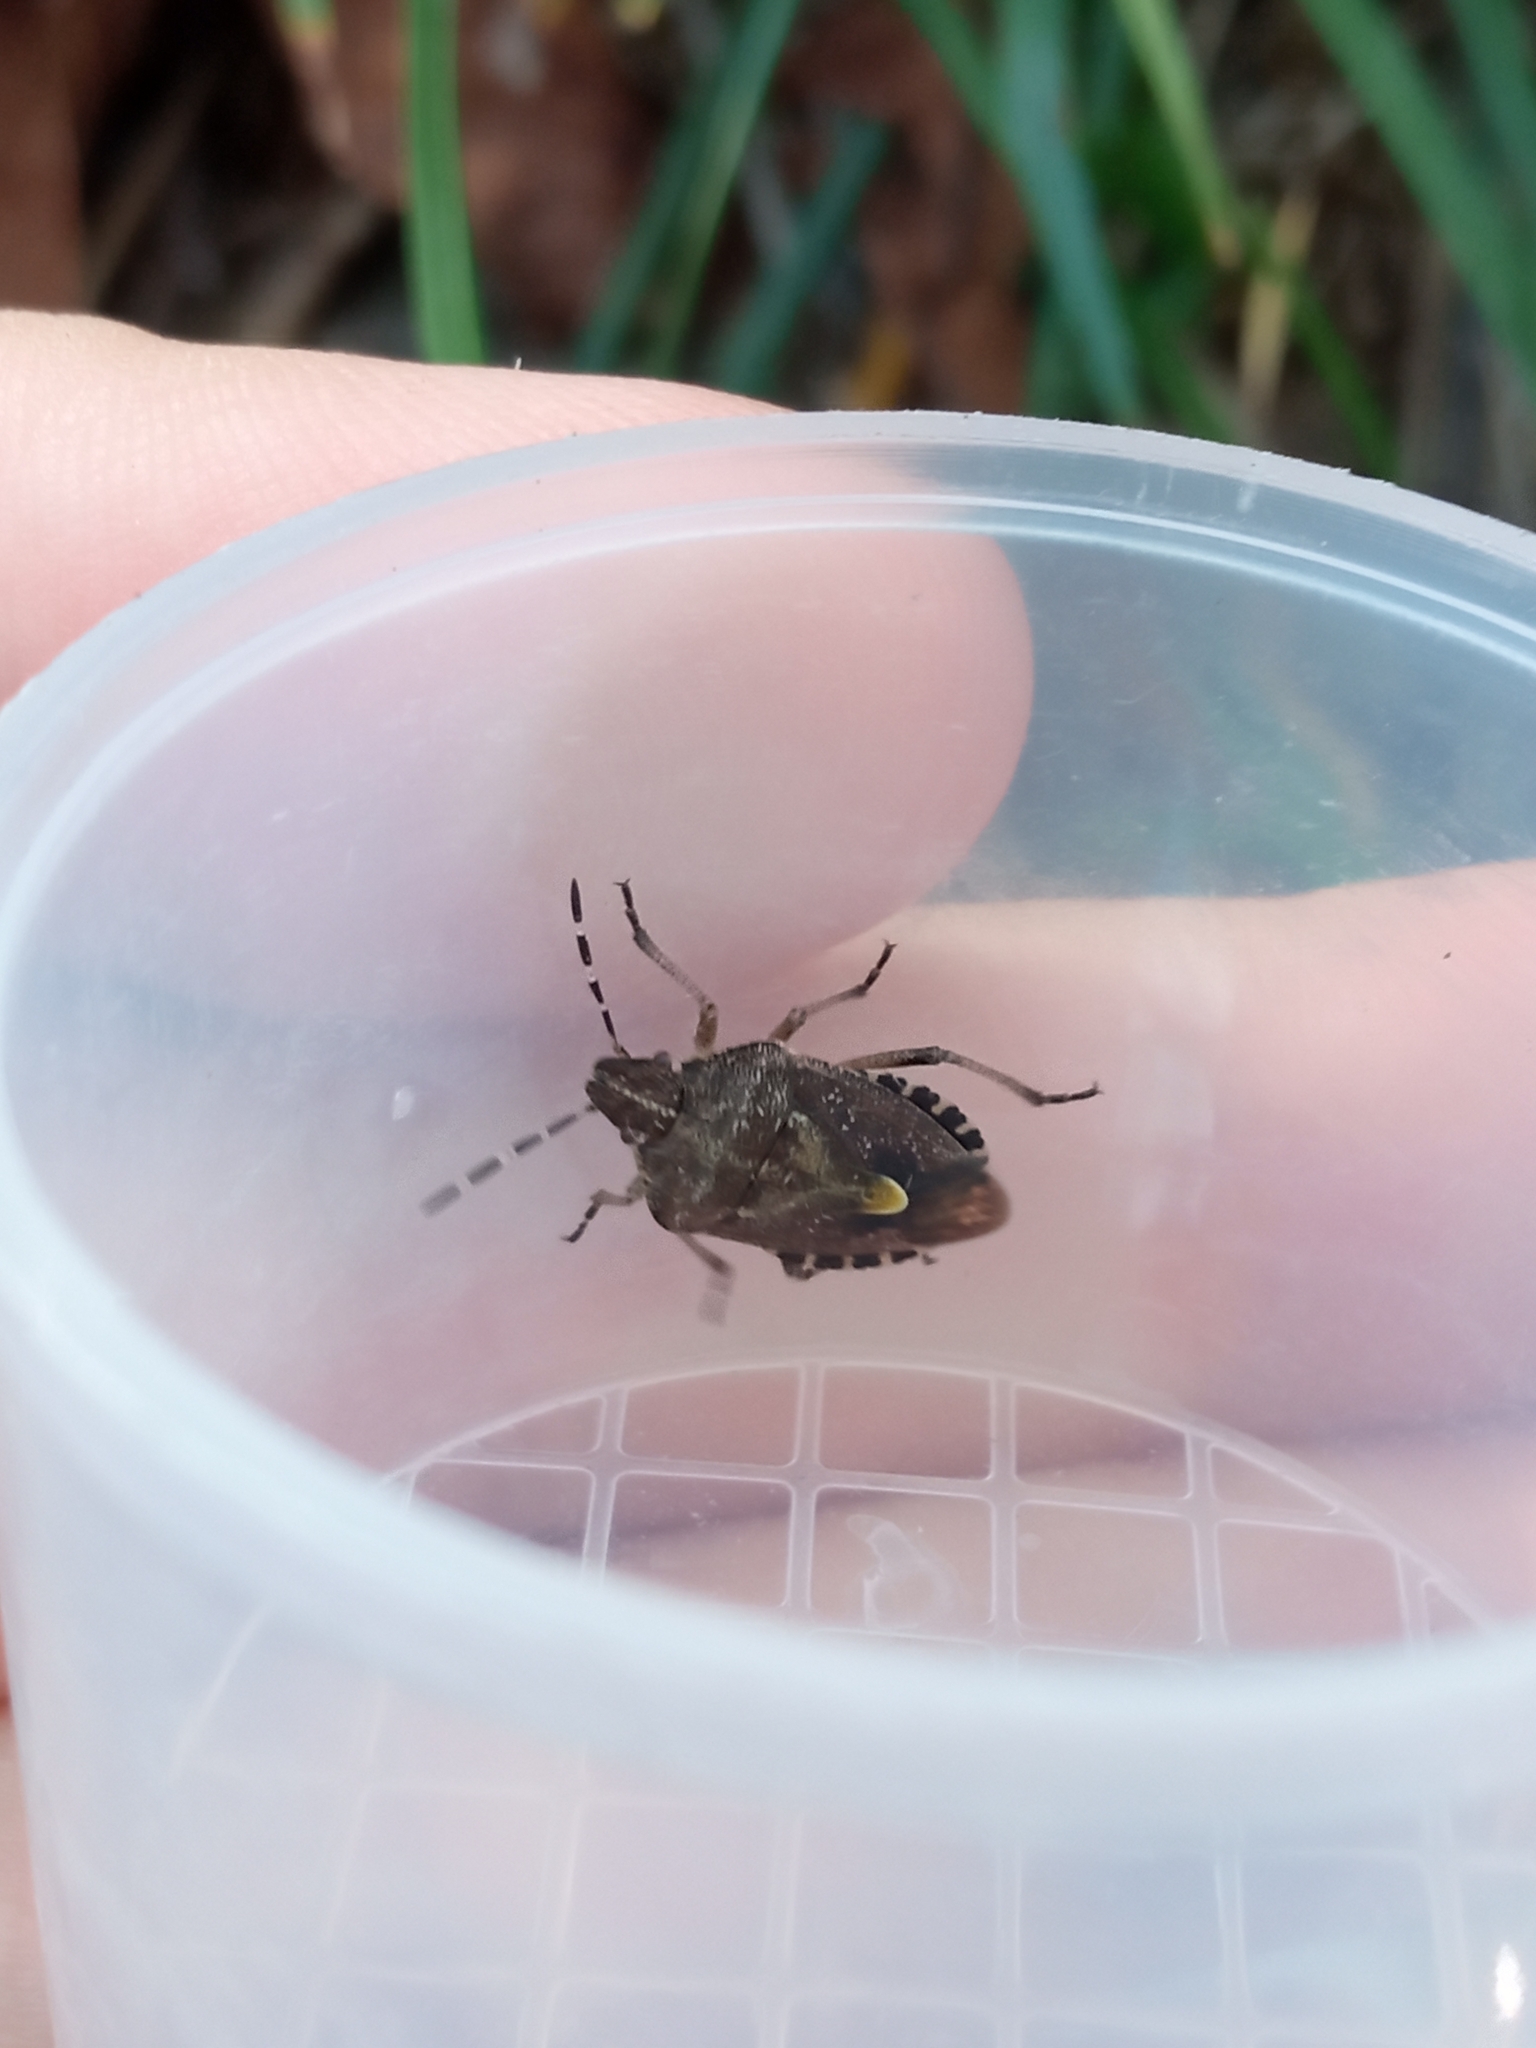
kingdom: Animalia
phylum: Arthropoda
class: Insecta
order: Hemiptera
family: Pentatomidae
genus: Dolycoris
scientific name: Dolycoris baccarum
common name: Sloe bug
